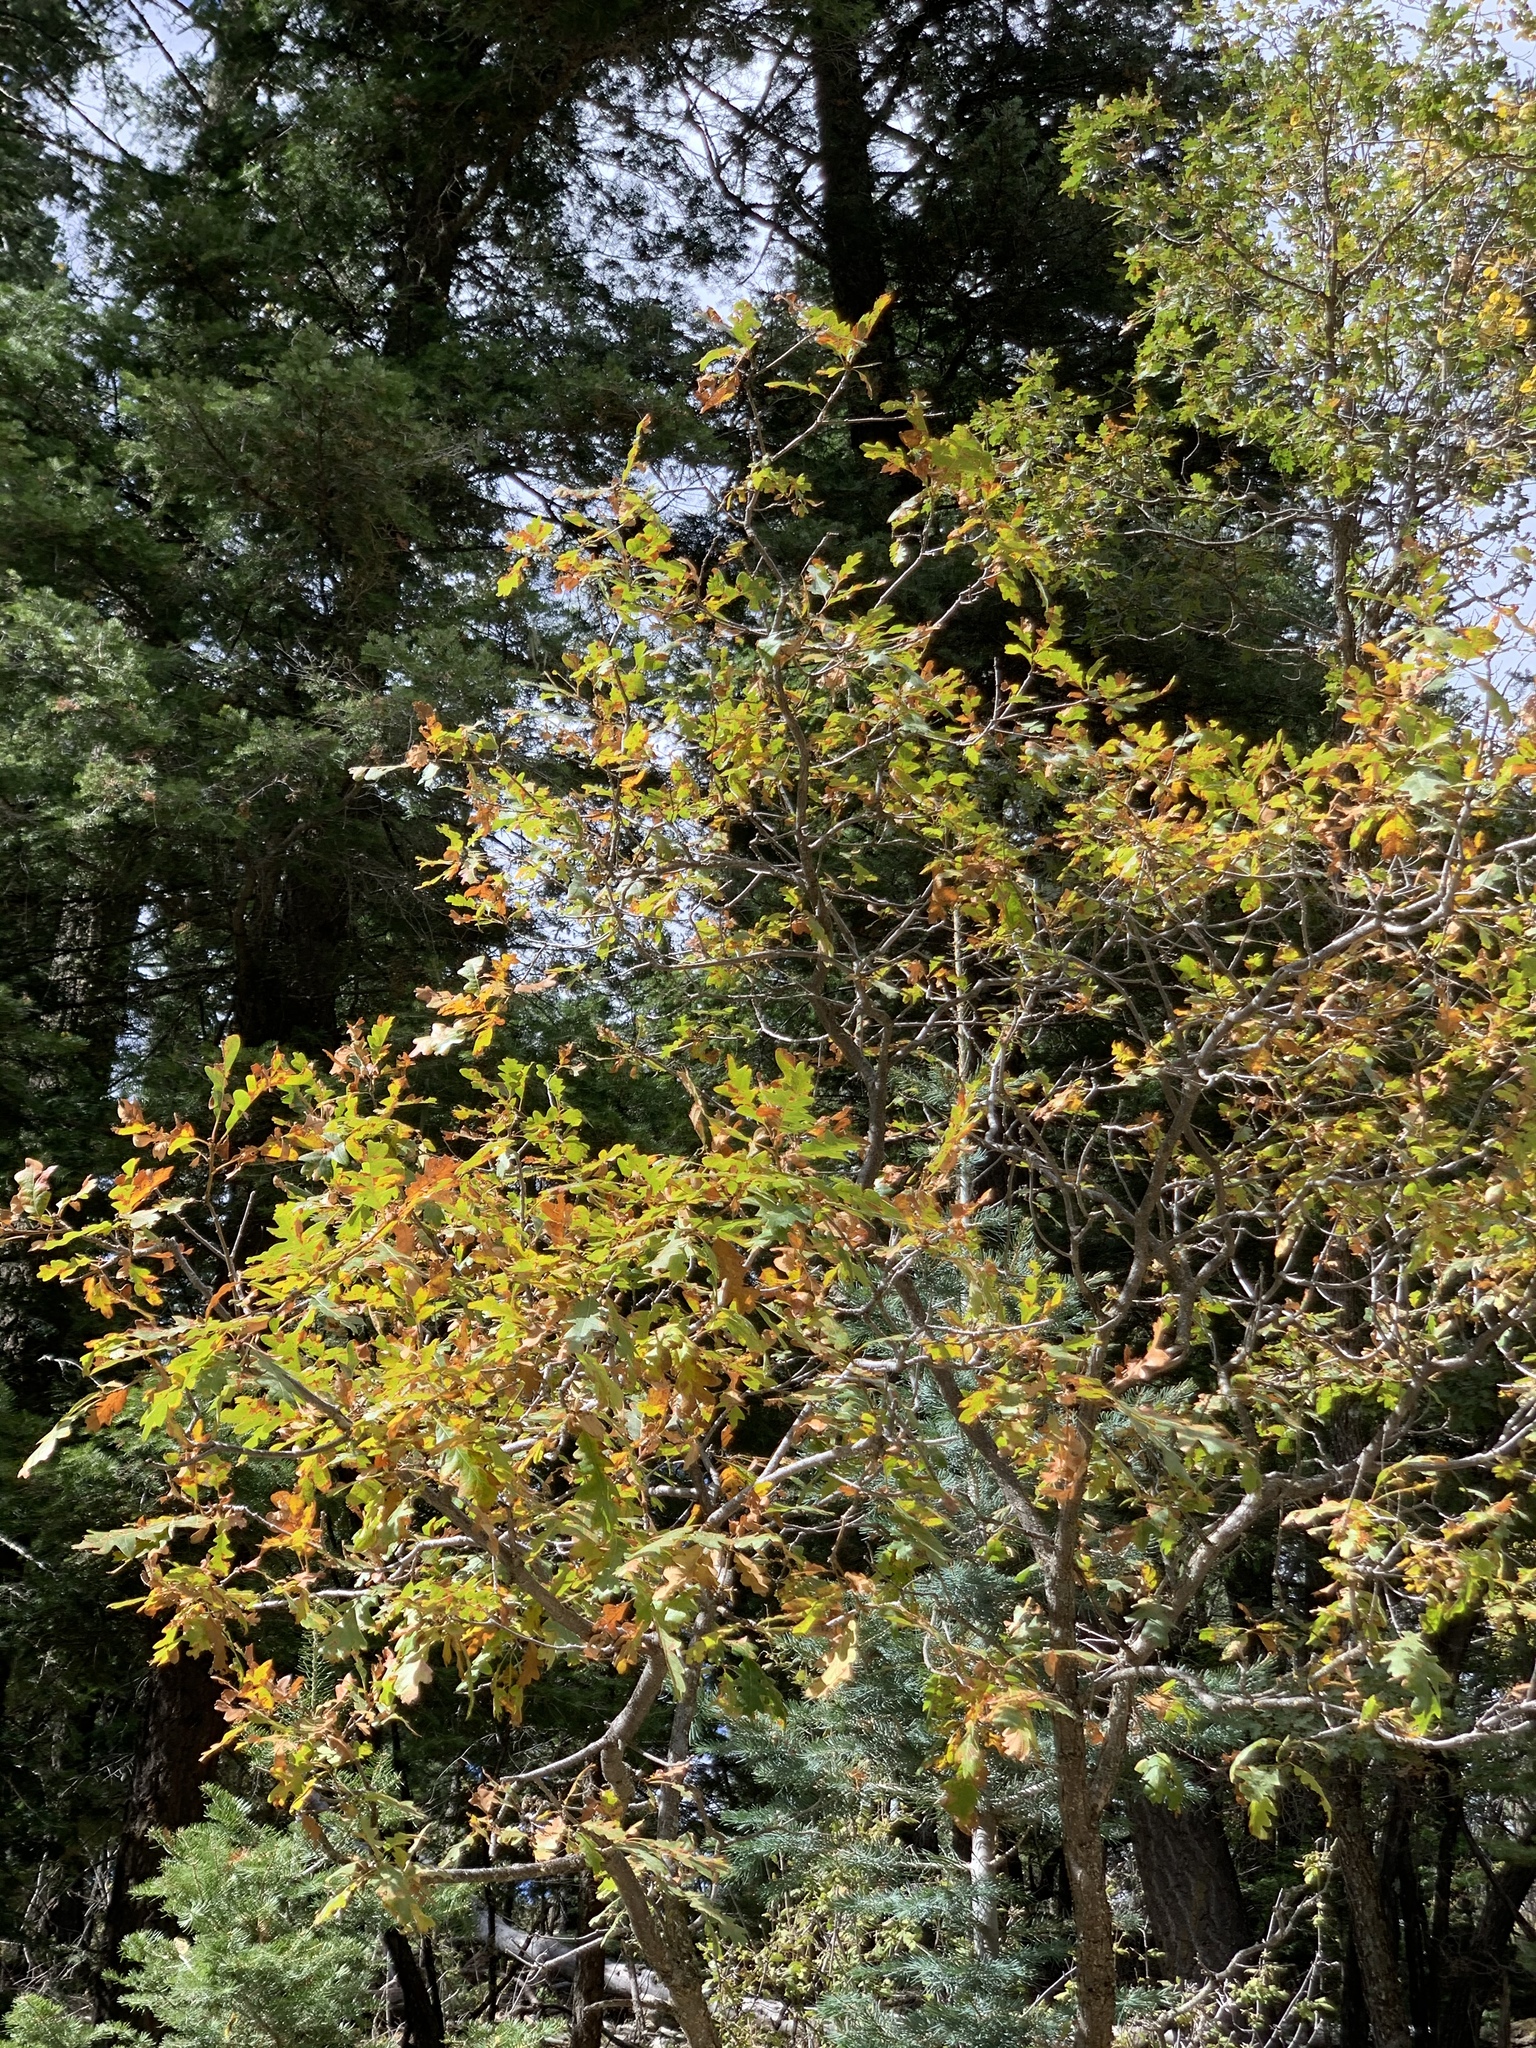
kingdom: Plantae
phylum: Tracheophyta
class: Magnoliopsida
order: Fagales
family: Fagaceae
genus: Quercus
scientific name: Quercus gambelii
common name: Gambel oak
